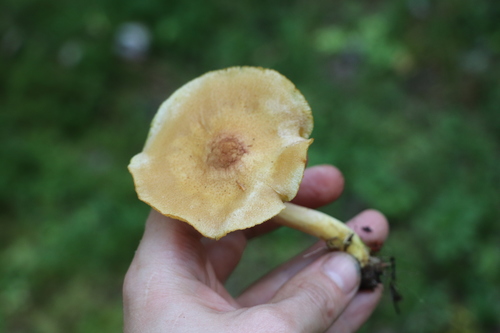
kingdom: Fungi
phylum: Basidiomycota
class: Agaricomycetes
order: Agaricales
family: Tricholomataceae
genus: Tricholomopsis
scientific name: Tricholomopsis
